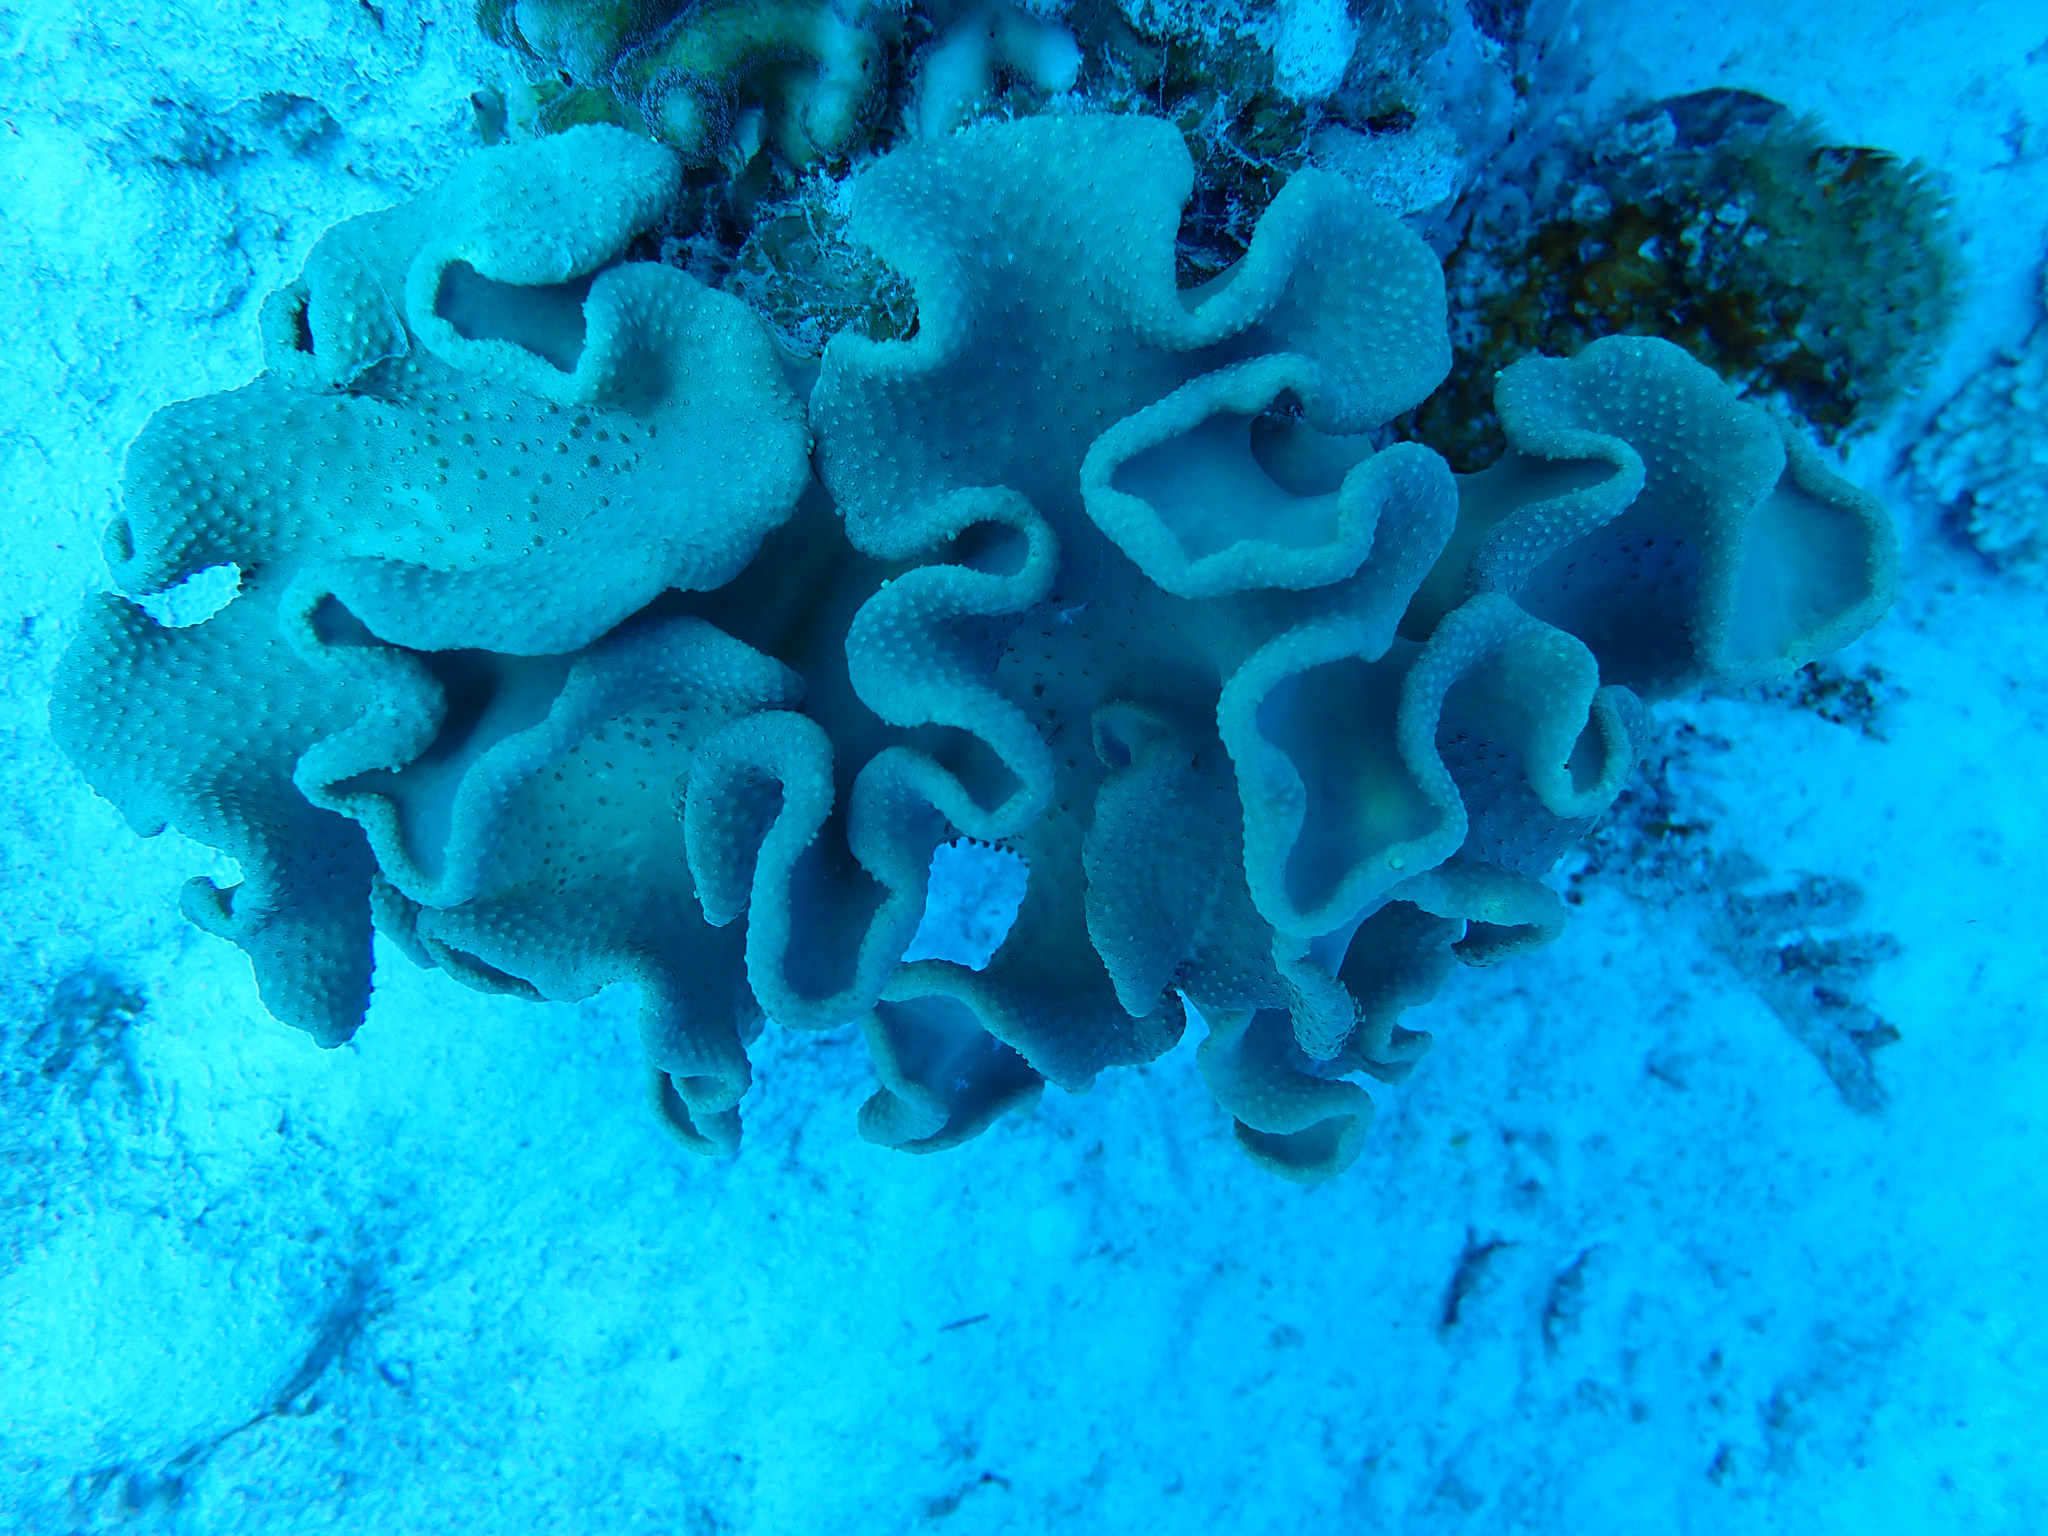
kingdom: Animalia
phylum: Cnidaria
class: Anthozoa
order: Malacalcyonacea
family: Sarcophytidae
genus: Sarcophyton
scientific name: Sarcophyton
